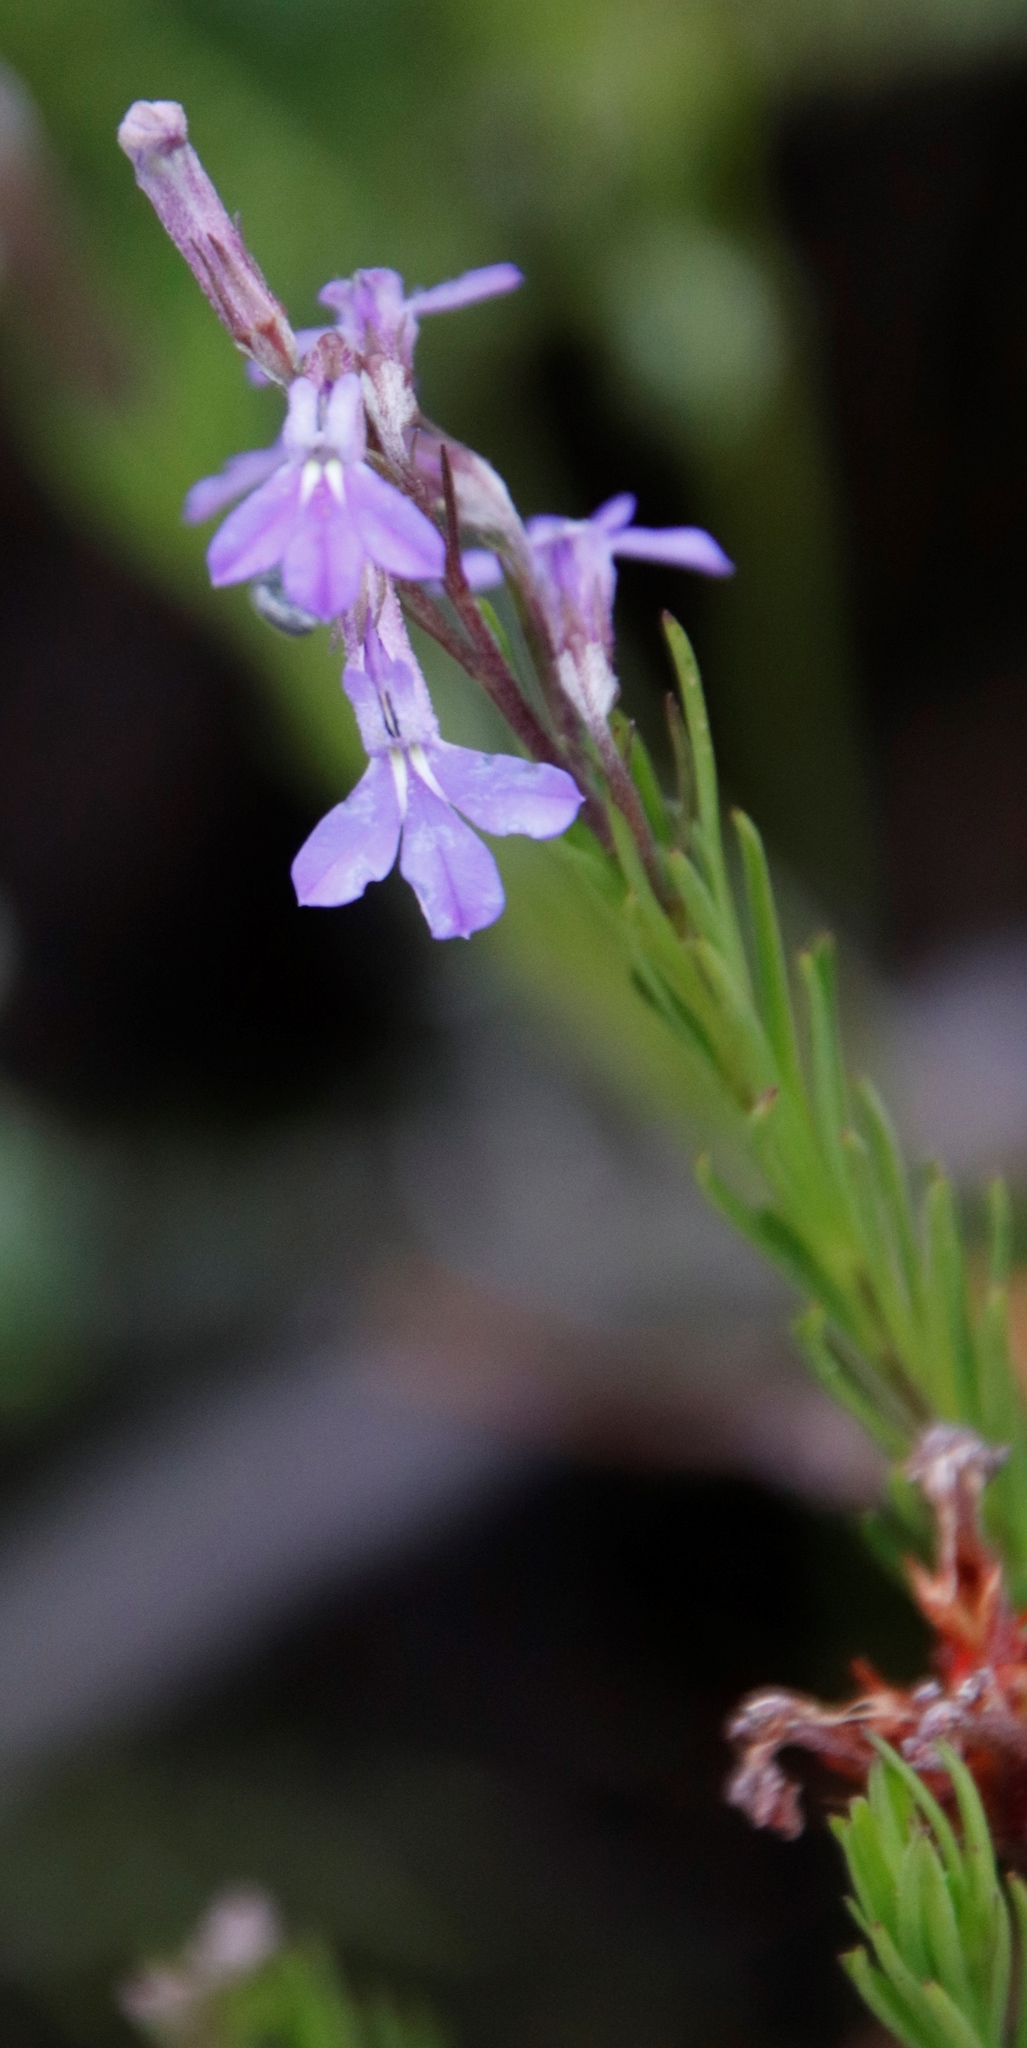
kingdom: Plantae
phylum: Tracheophyta
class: Magnoliopsida
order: Asterales
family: Campanulaceae
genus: Lobelia
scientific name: Lobelia pinifolia
